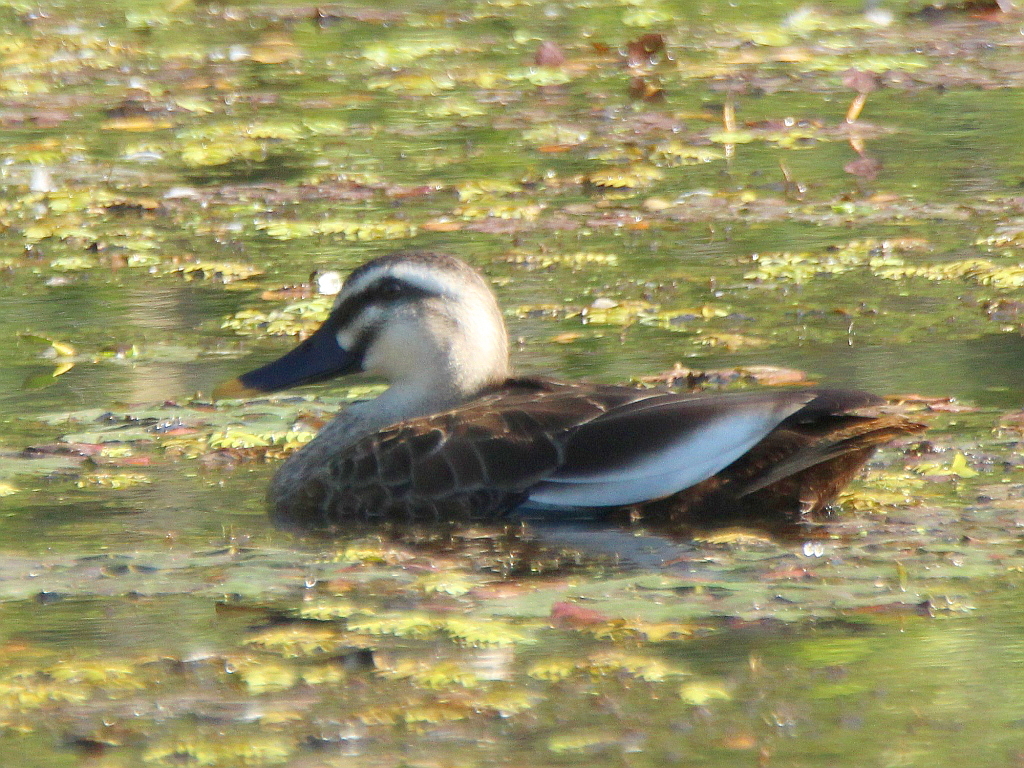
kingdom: Animalia
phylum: Chordata
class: Aves
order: Anseriformes
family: Anatidae
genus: Anas
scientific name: Anas zonorhyncha
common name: Eastern spot-billed duck
